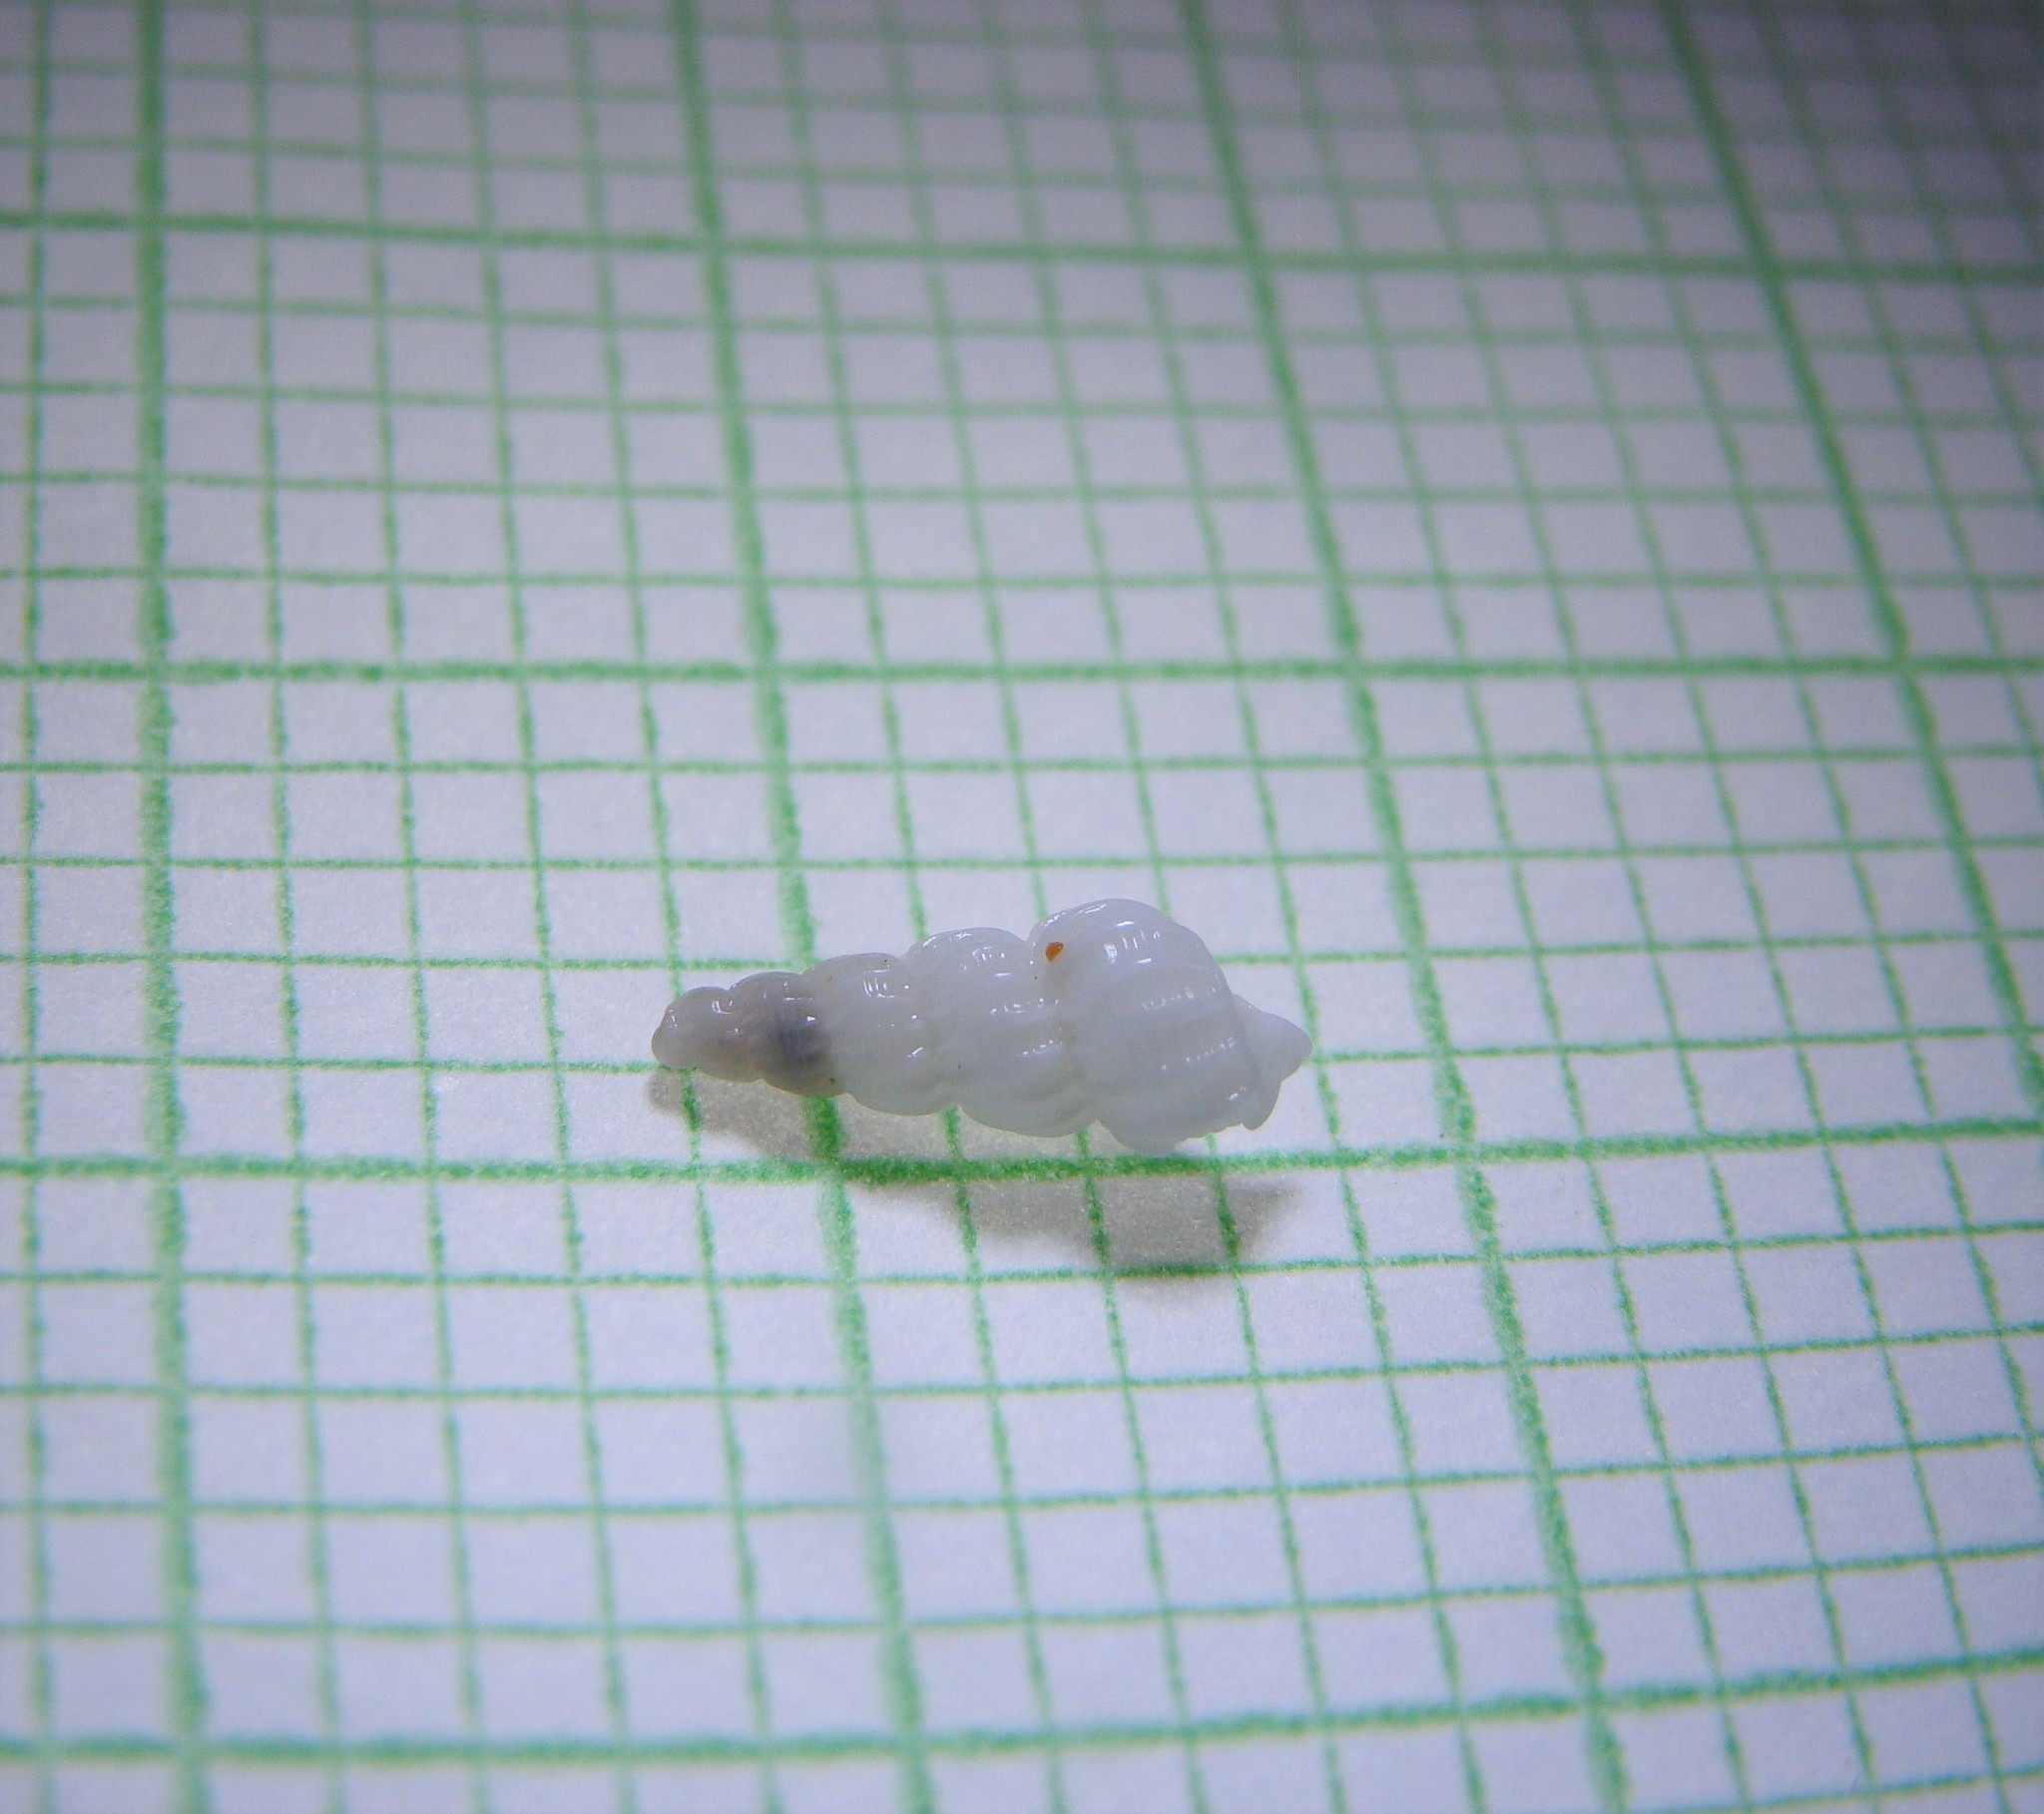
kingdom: Animalia
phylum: Mollusca
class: Gastropoda
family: Epitoniidae
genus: Cirsotrema
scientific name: Cirsotrema zelebori
